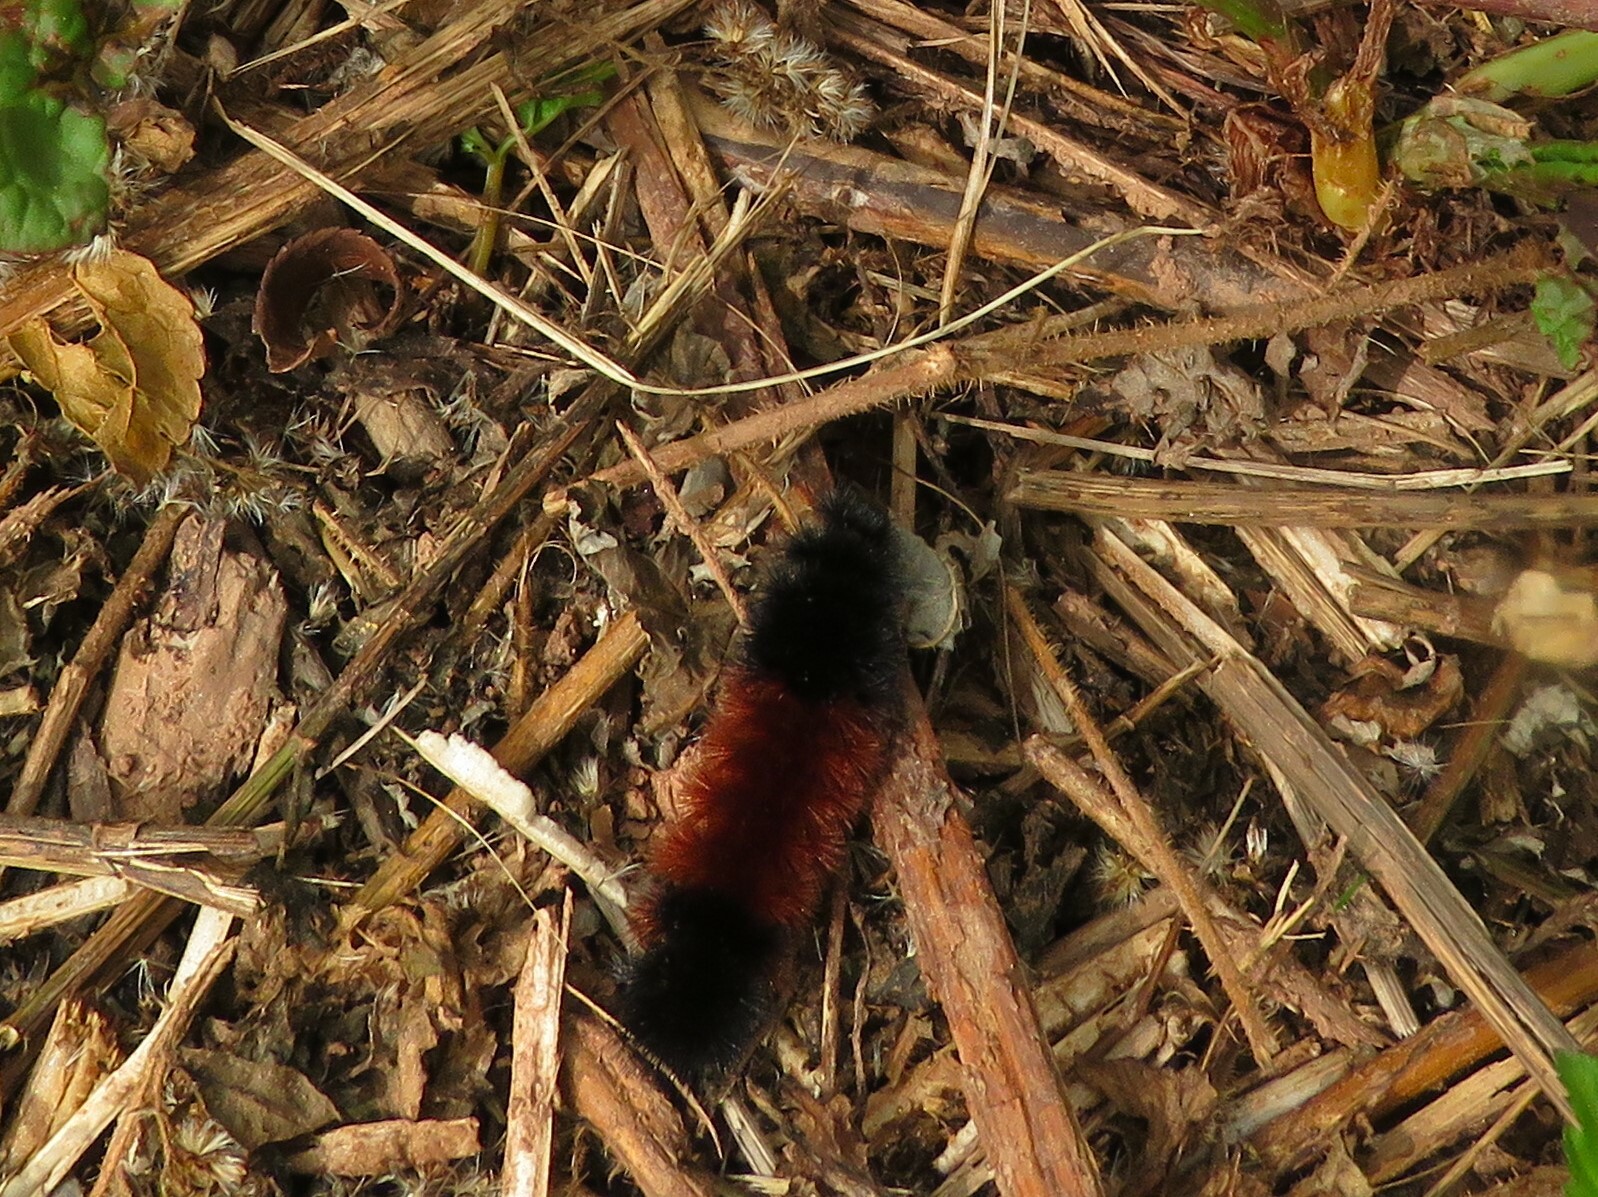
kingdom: Animalia
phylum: Arthropoda
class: Insecta
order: Lepidoptera
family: Erebidae
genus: Pyrrharctia
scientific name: Pyrrharctia isabella
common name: Isabella tiger moth
